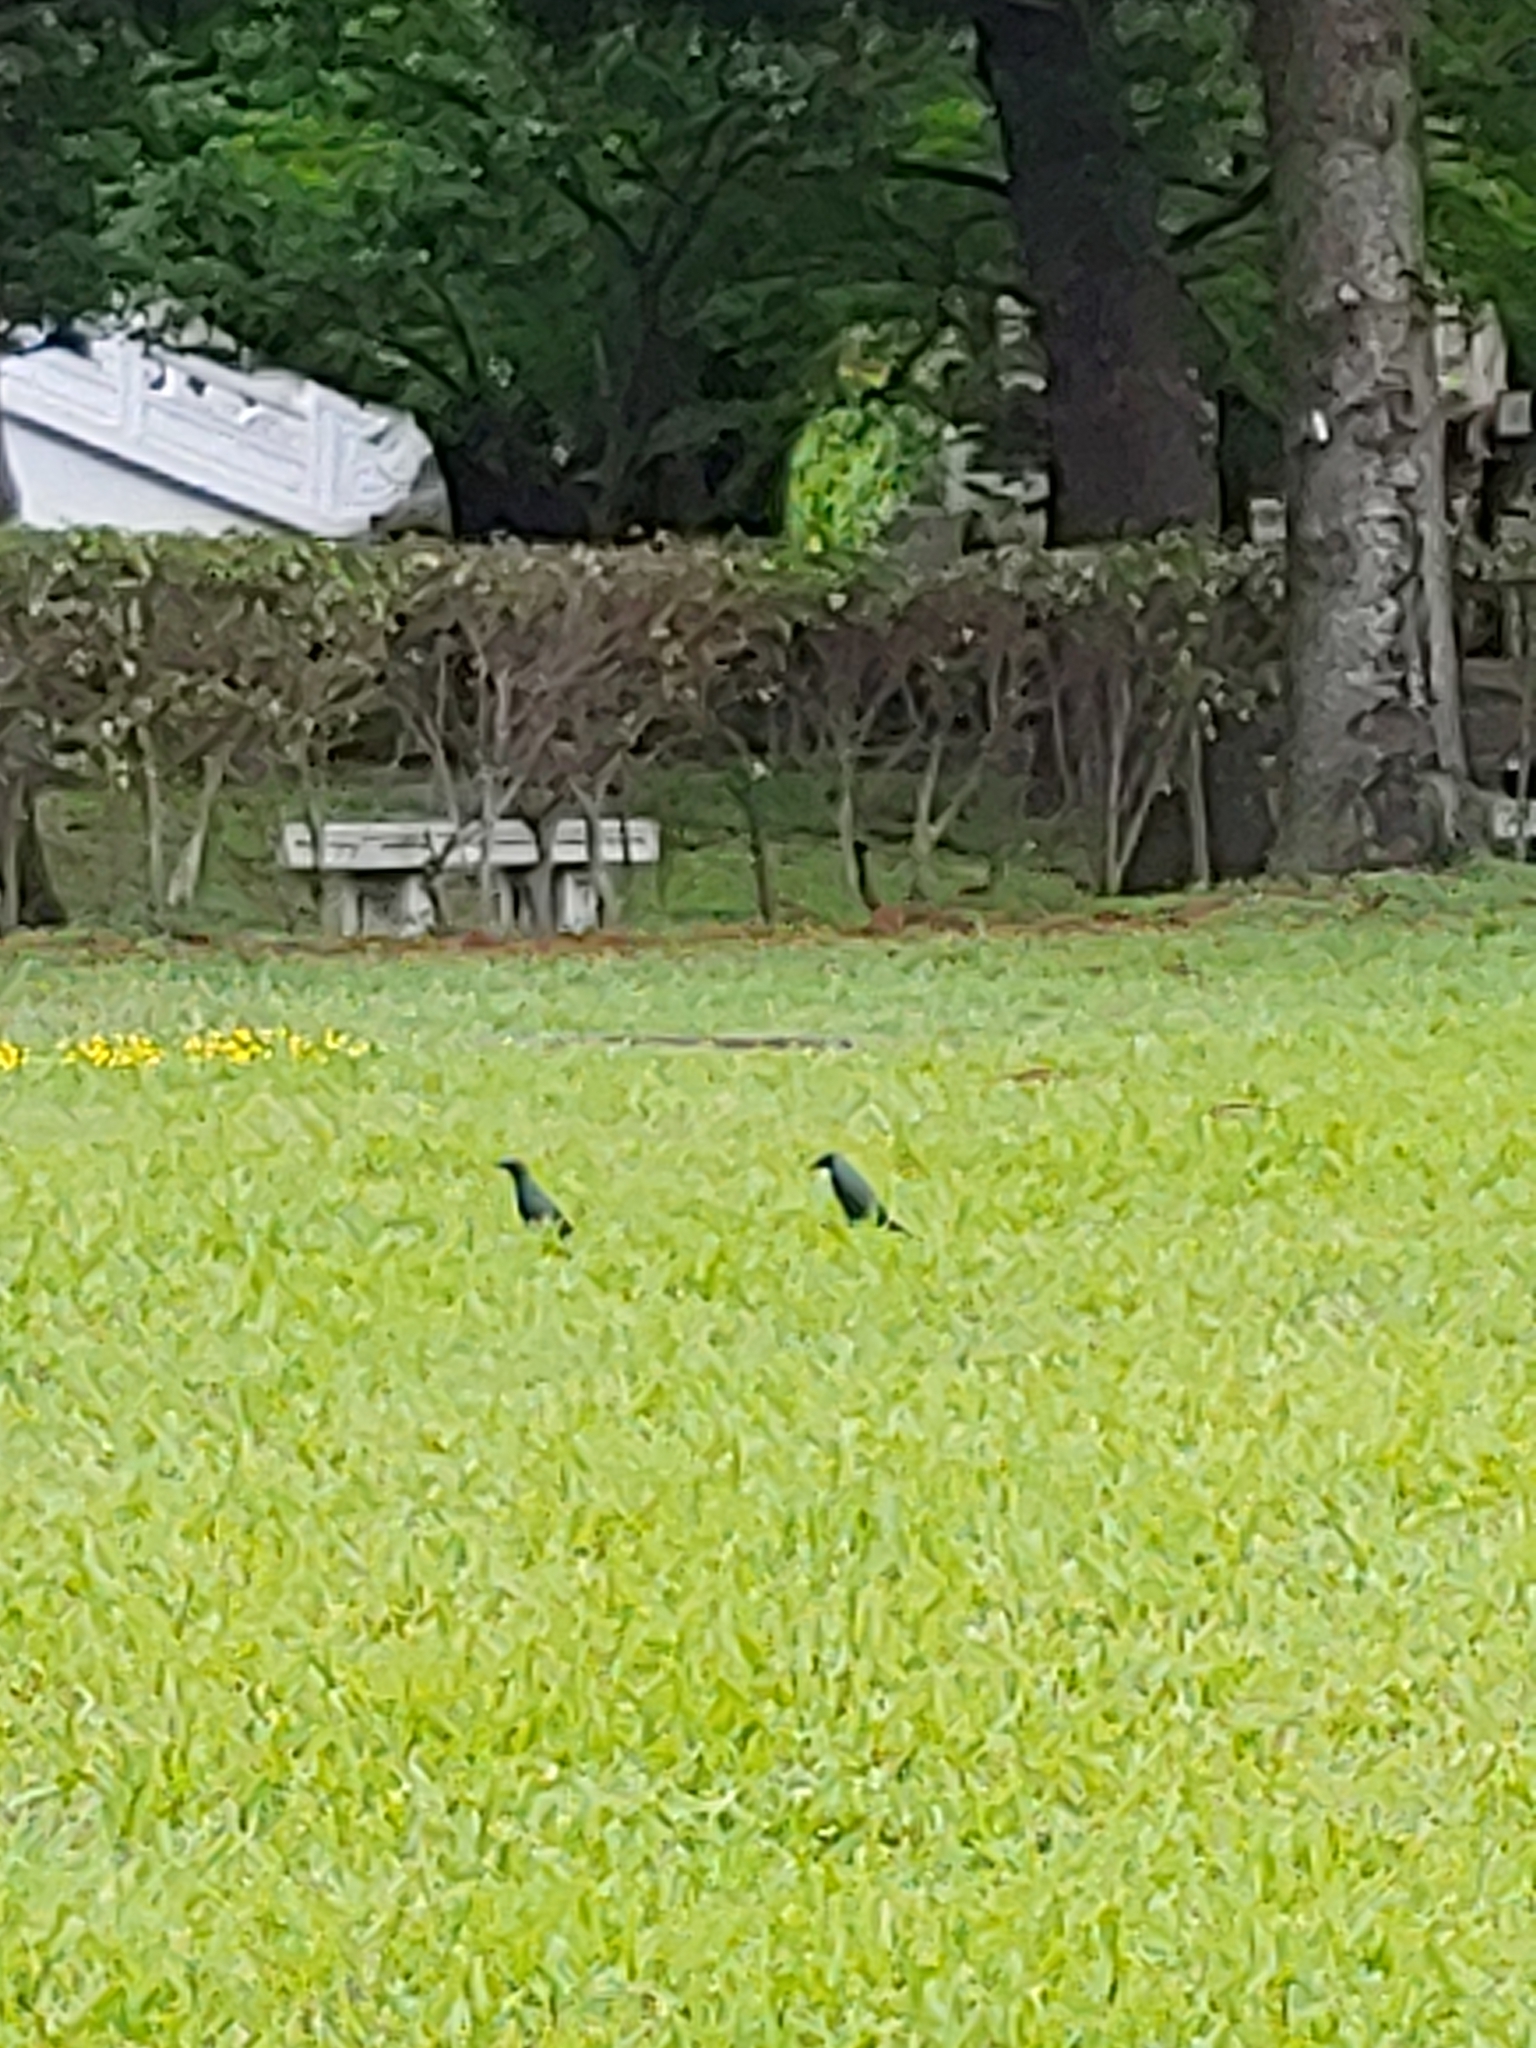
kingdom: Animalia
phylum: Chordata
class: Aves
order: Passeriformes
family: Sturnidae
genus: Aplonis
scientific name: Aplonis panayensis
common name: Asian glossy starling
